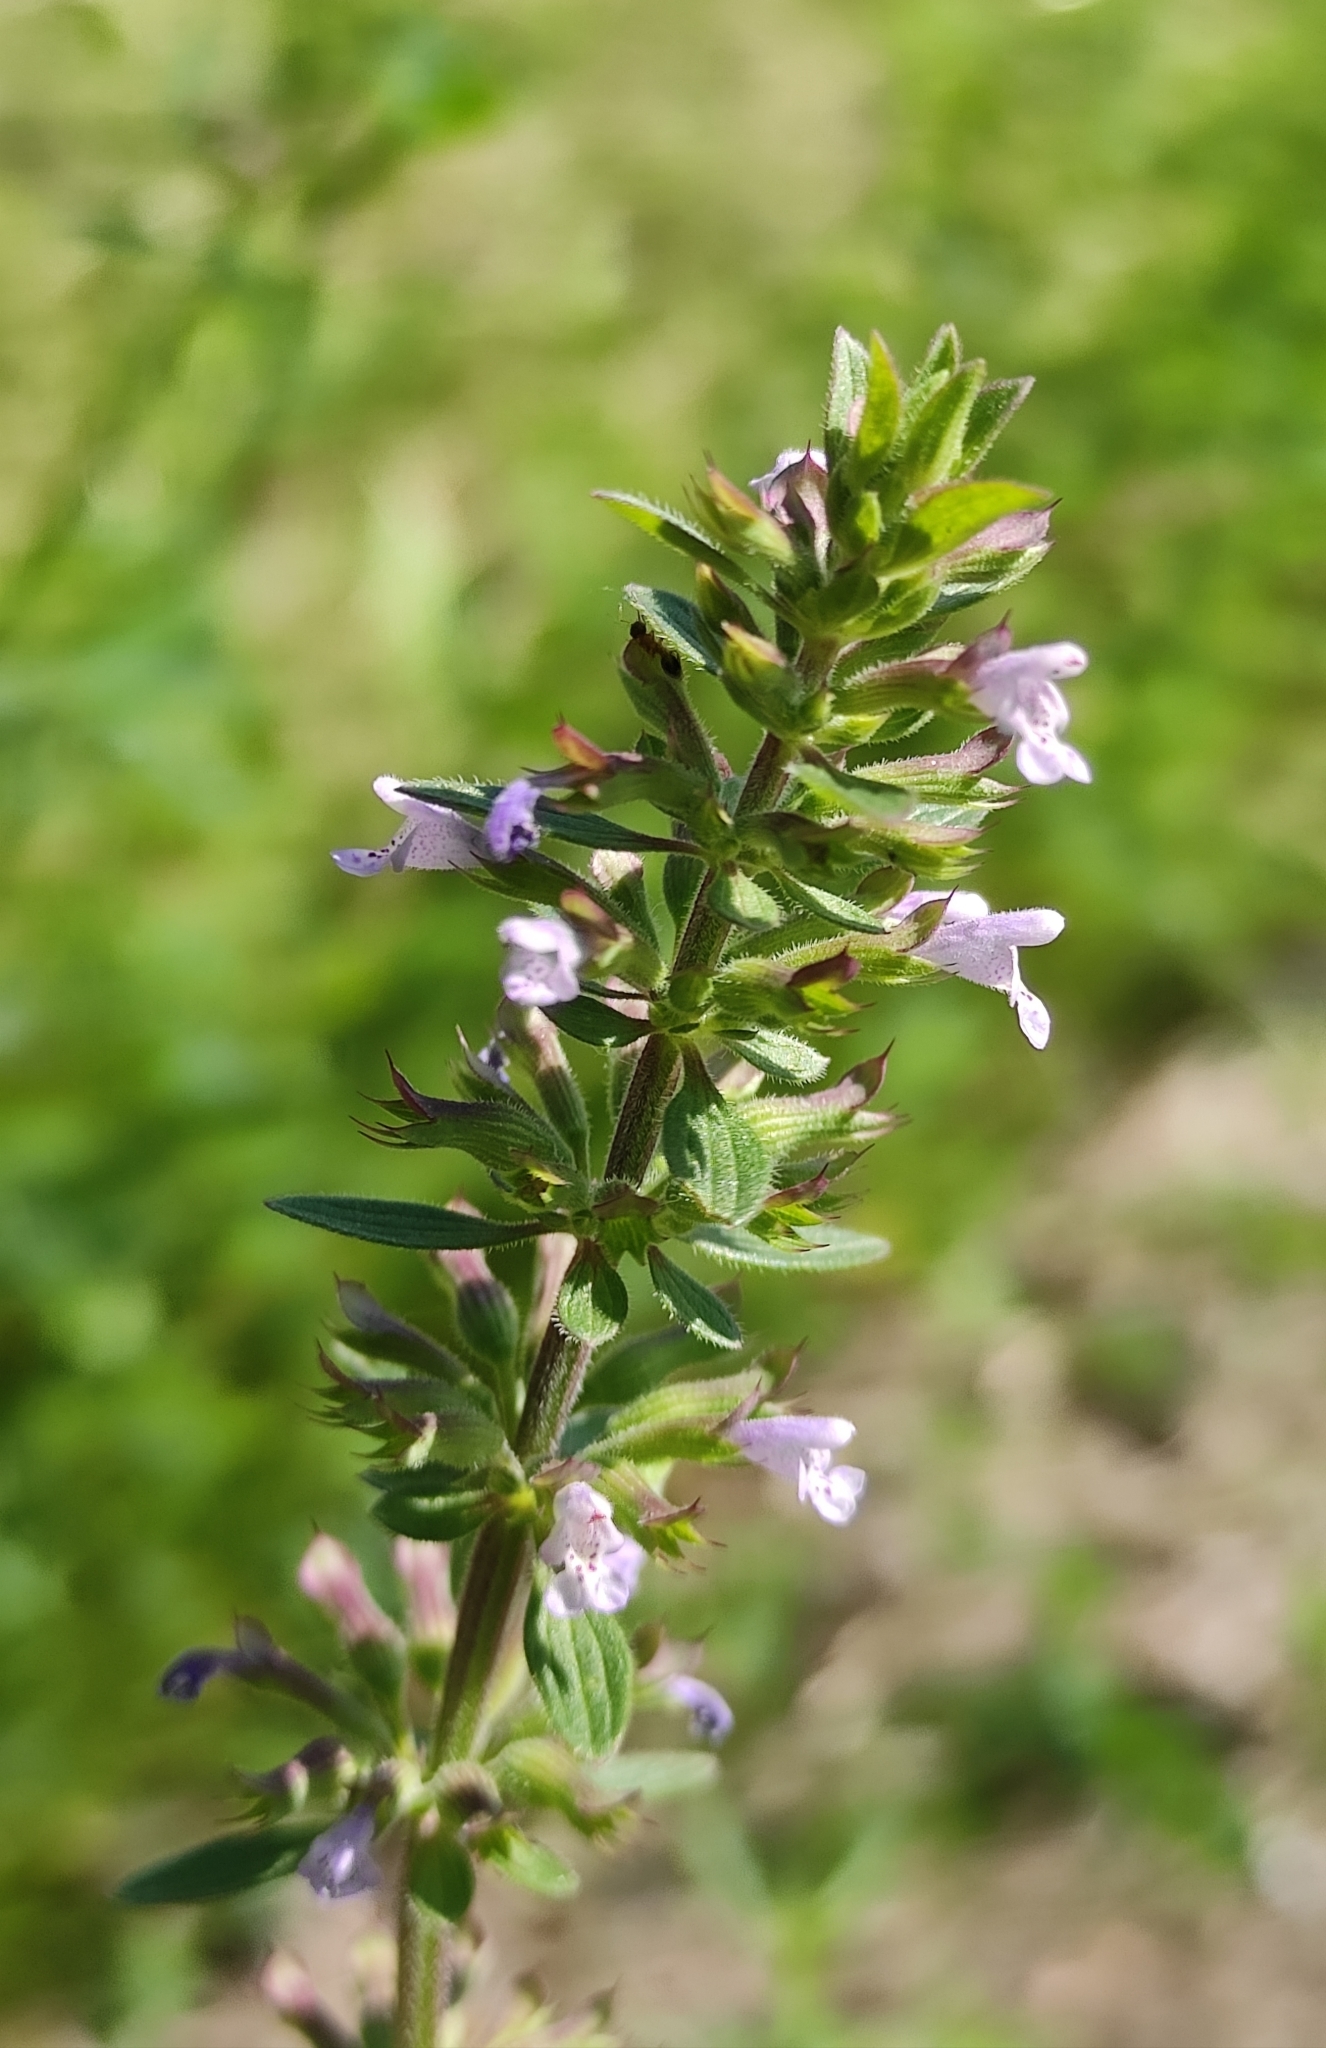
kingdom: Plantae
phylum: Tracheophyta
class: Magnoliopsida
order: Lamiales
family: Lamiaceae
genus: Dracocephalum
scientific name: Dracocephalum thymiflorum
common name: Thymeleaf dragonhead
